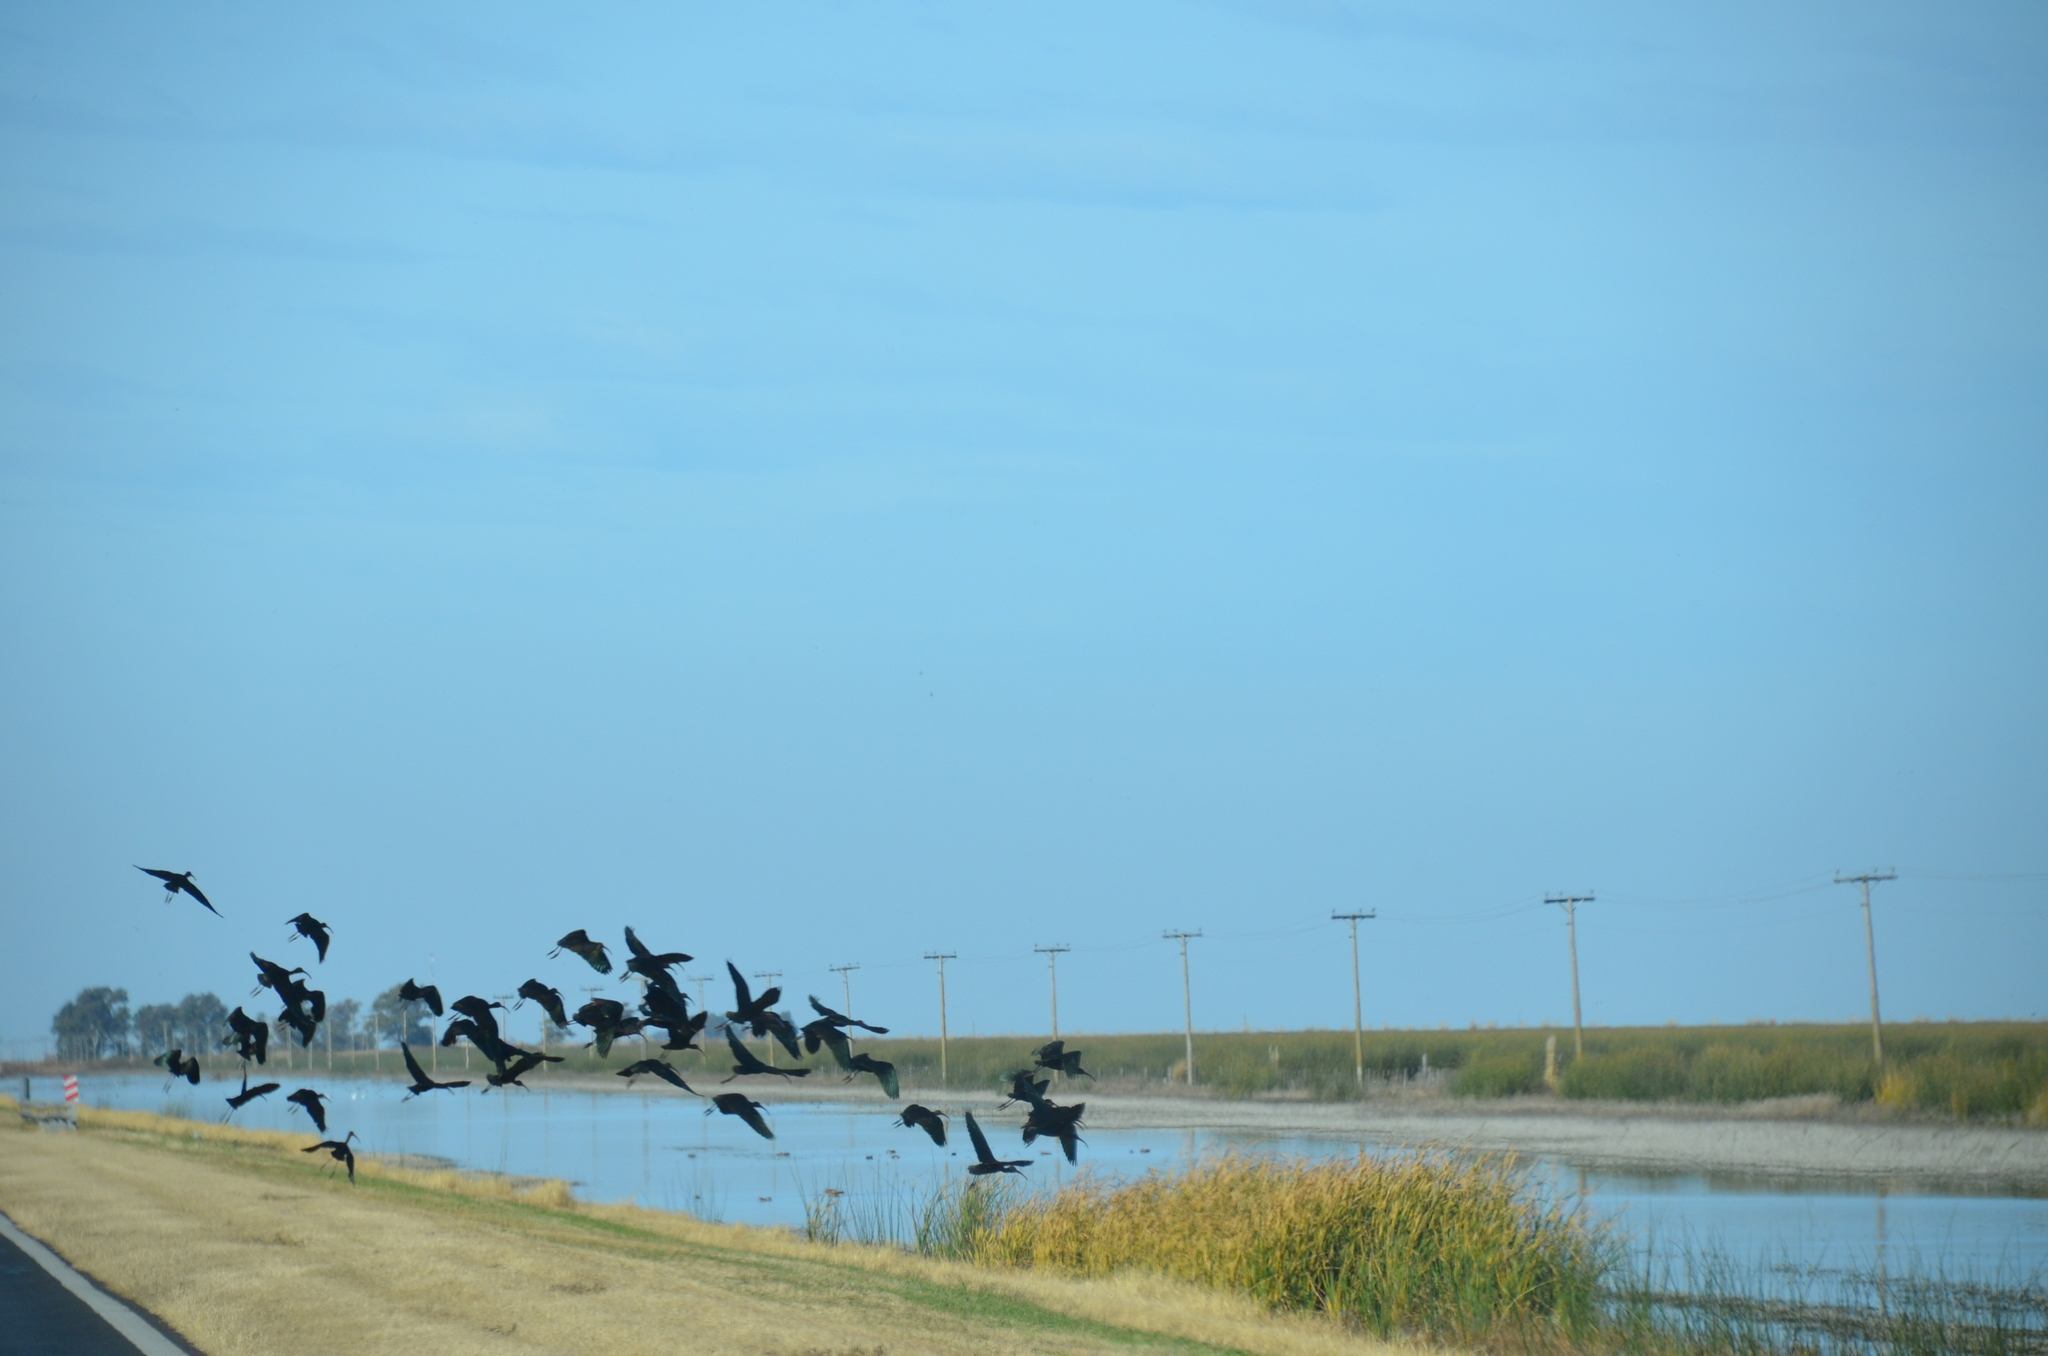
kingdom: Animalia
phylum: Chordata
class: Aves
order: Pelecaniformes
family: Threskiornithidae
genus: Plegadis
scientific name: Plegadis chihi
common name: White-faced ibis
